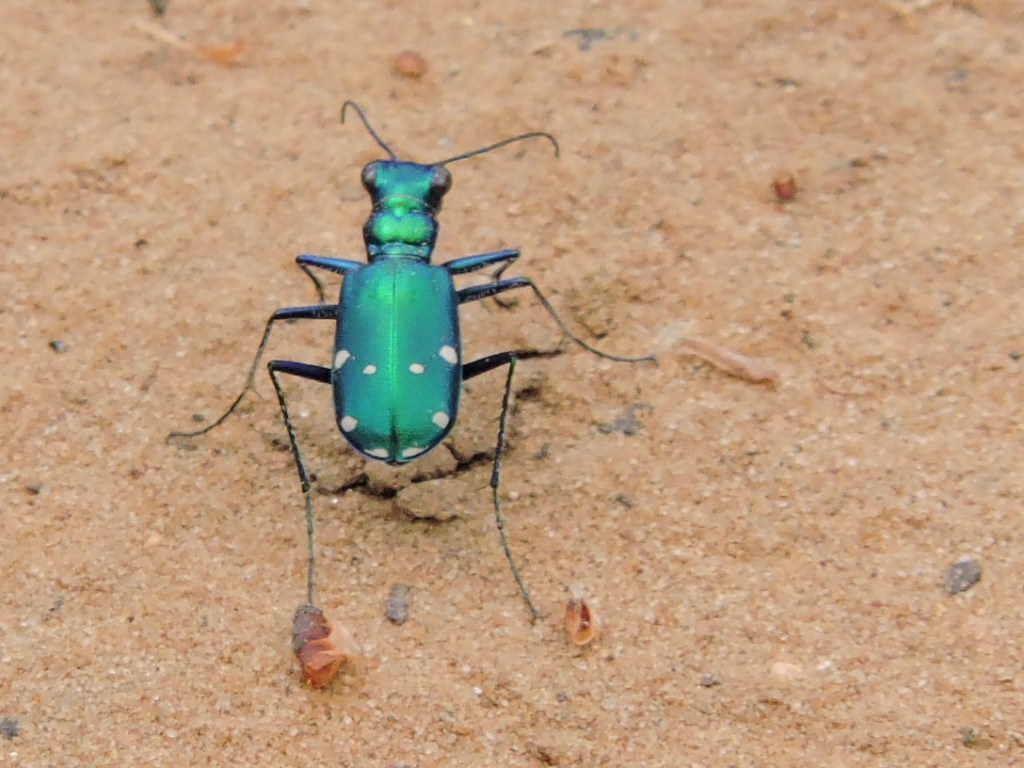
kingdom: Animalia
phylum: Arthropoda
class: Insecta
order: Coleoptera
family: Carabidae
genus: Cicindela
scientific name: Cicindela sexguttata
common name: Six-spotted tiger beetle
